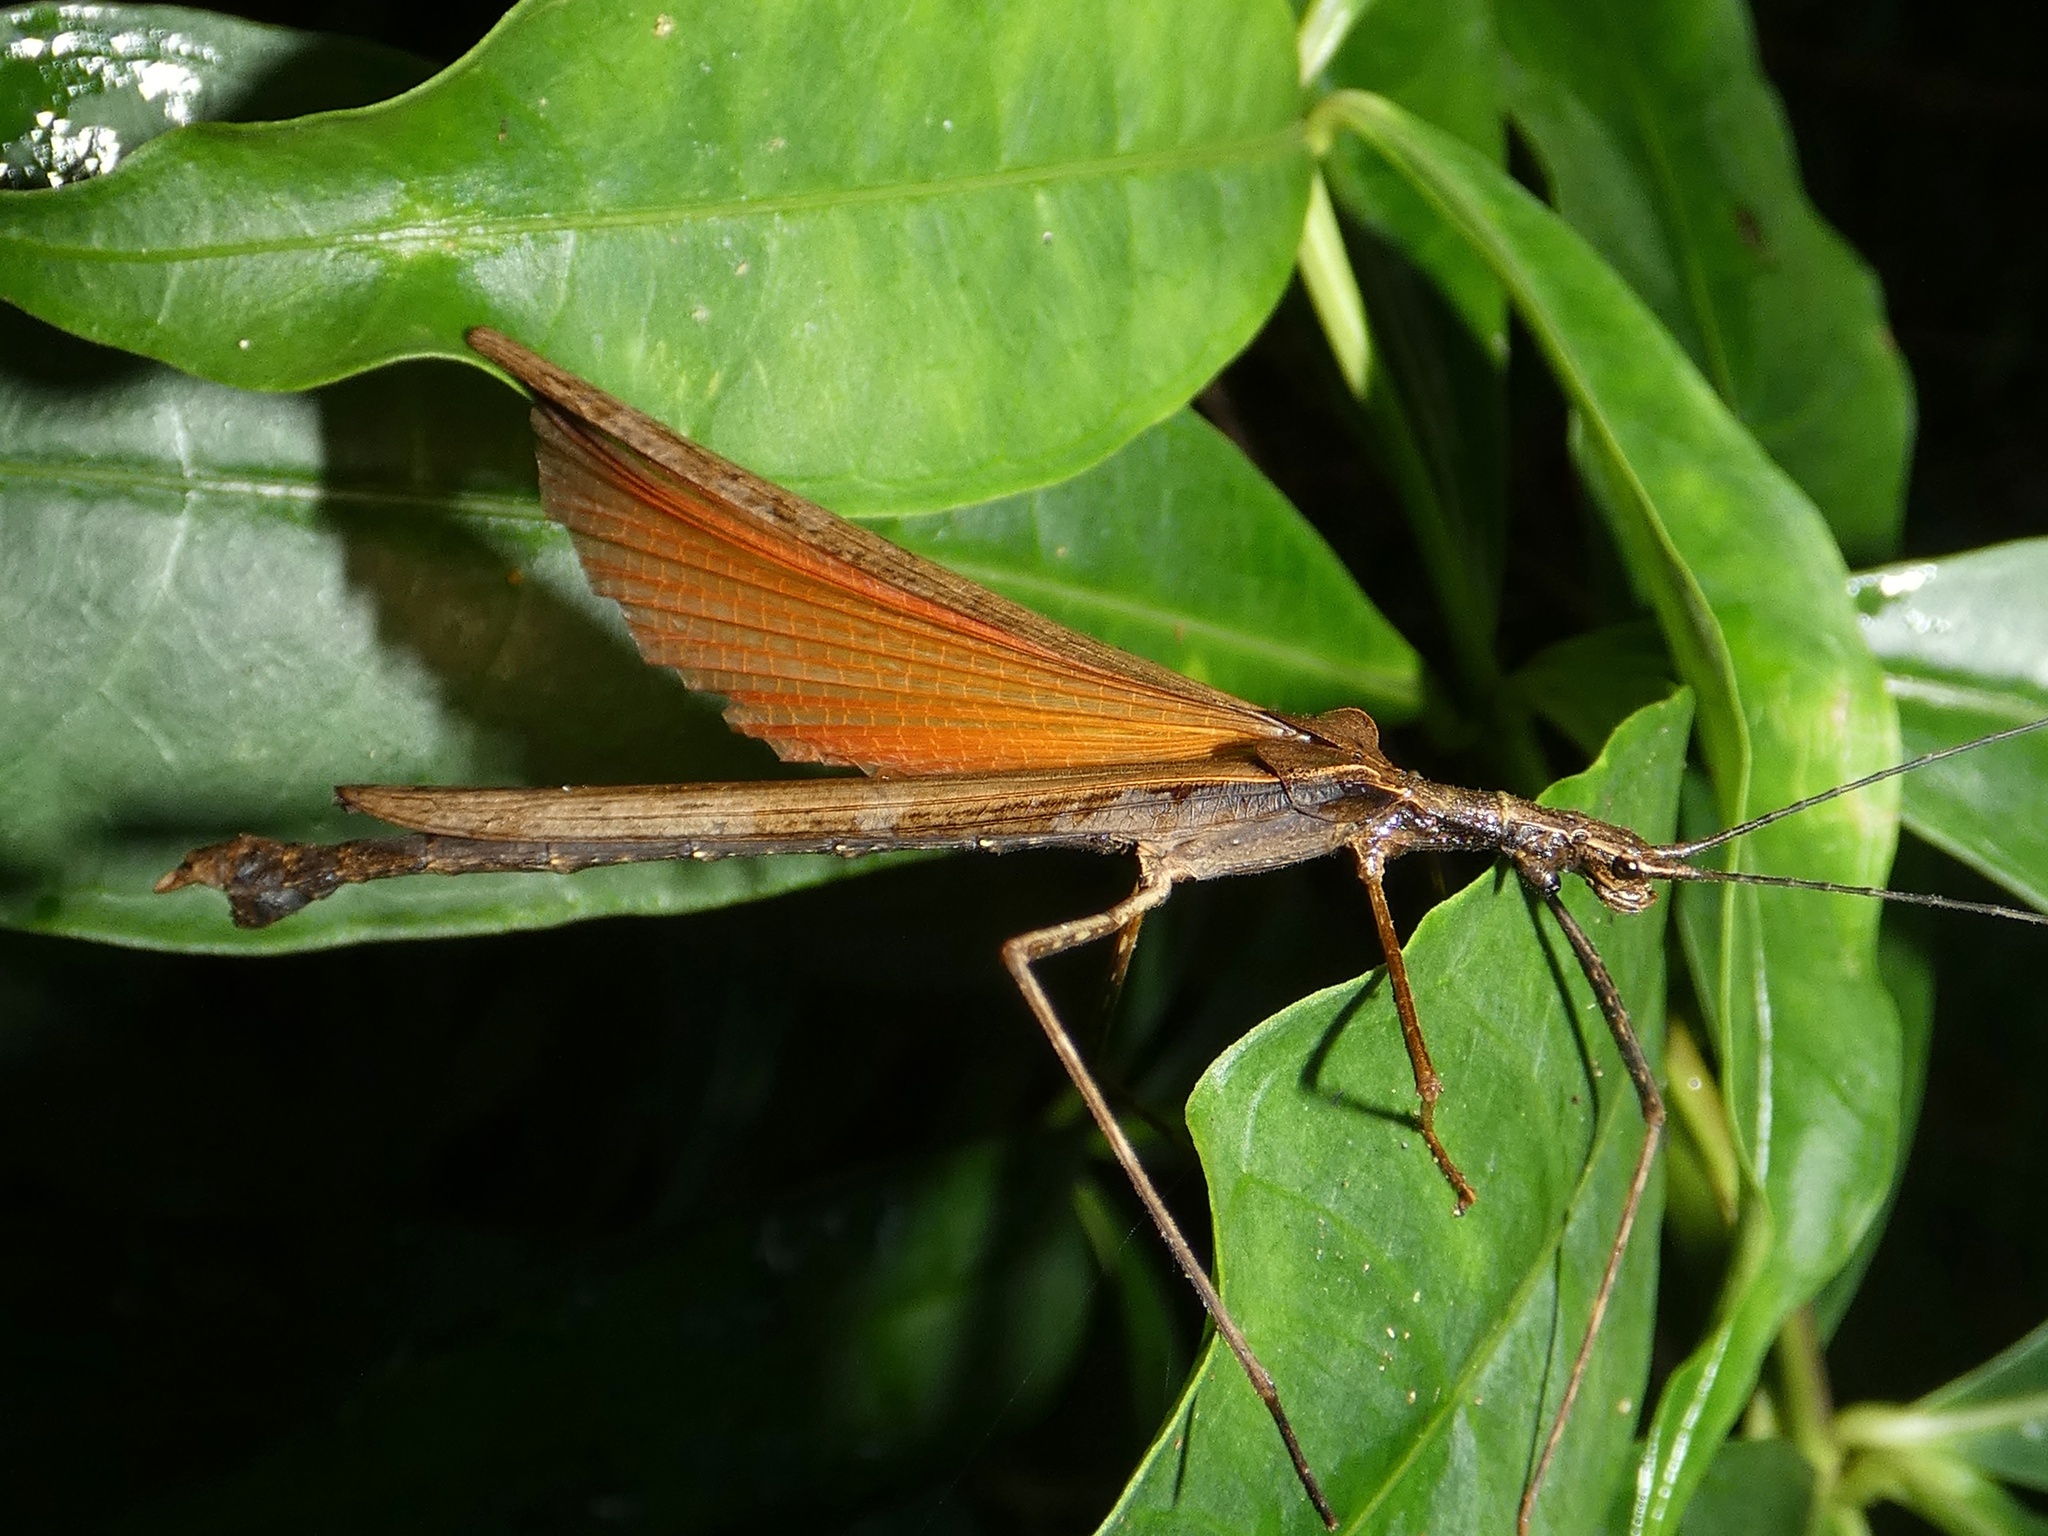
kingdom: Animalia
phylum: Arthropoda
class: Insecta
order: Phasmida
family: Pseudophasmatidae
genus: Pseudophasma
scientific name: Pseudophasma unicolor
